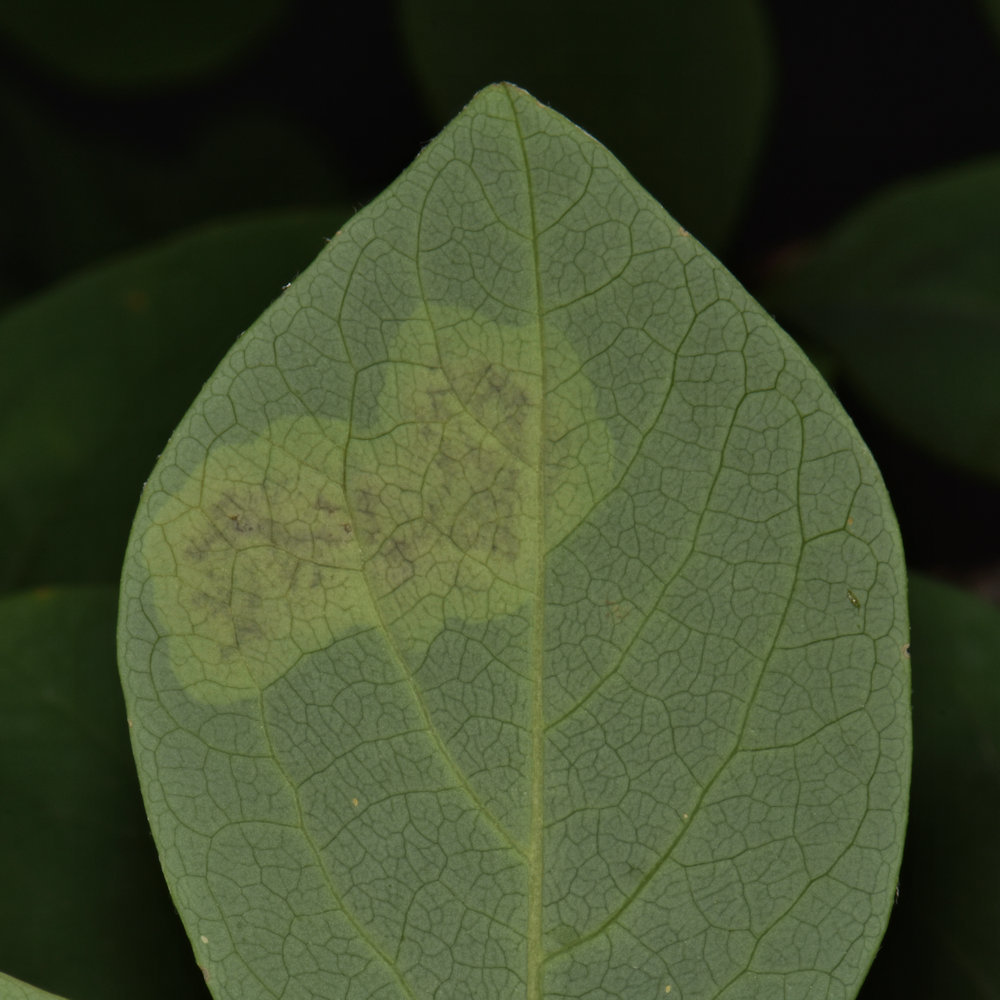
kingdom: Animalia
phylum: Arthropoda
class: Insecta
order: Lepidoptera
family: Gracillariidae
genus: Leucanthiza
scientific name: Leucanthiza dircella
